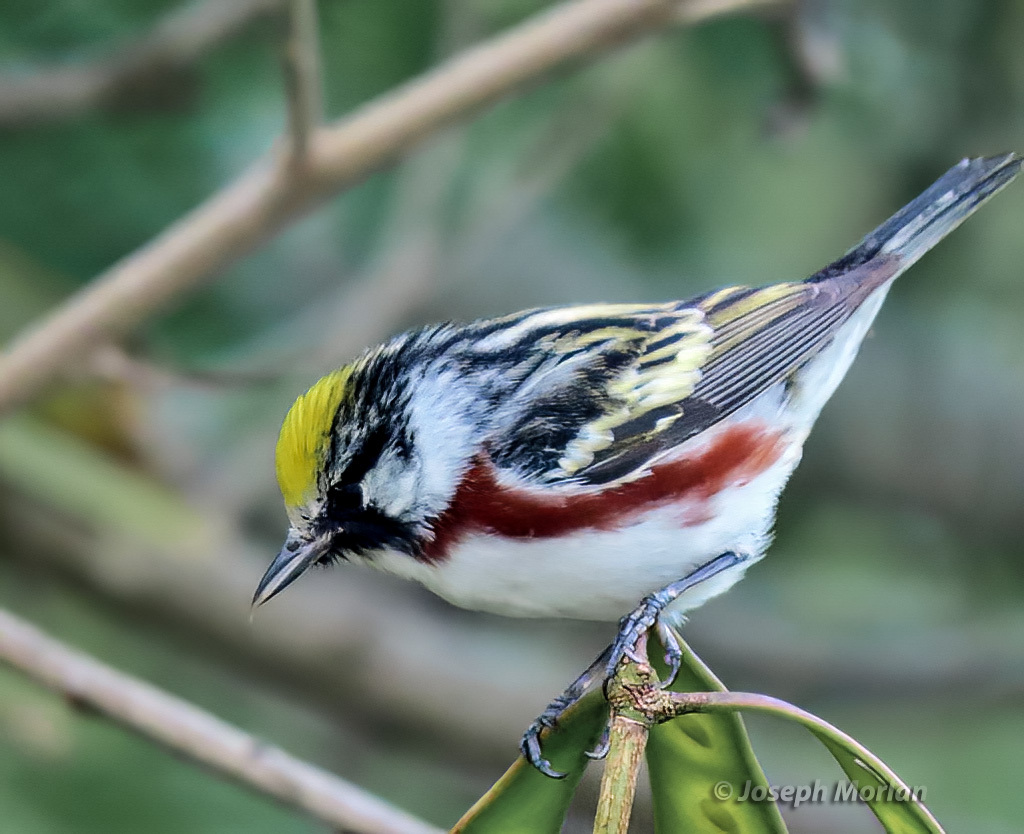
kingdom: Animalia
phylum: Chordata
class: Aves
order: Passeriformes
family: Parulidae
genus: Setophaga
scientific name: Setophaga pensylvanica
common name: Chestnut-sided warbler
